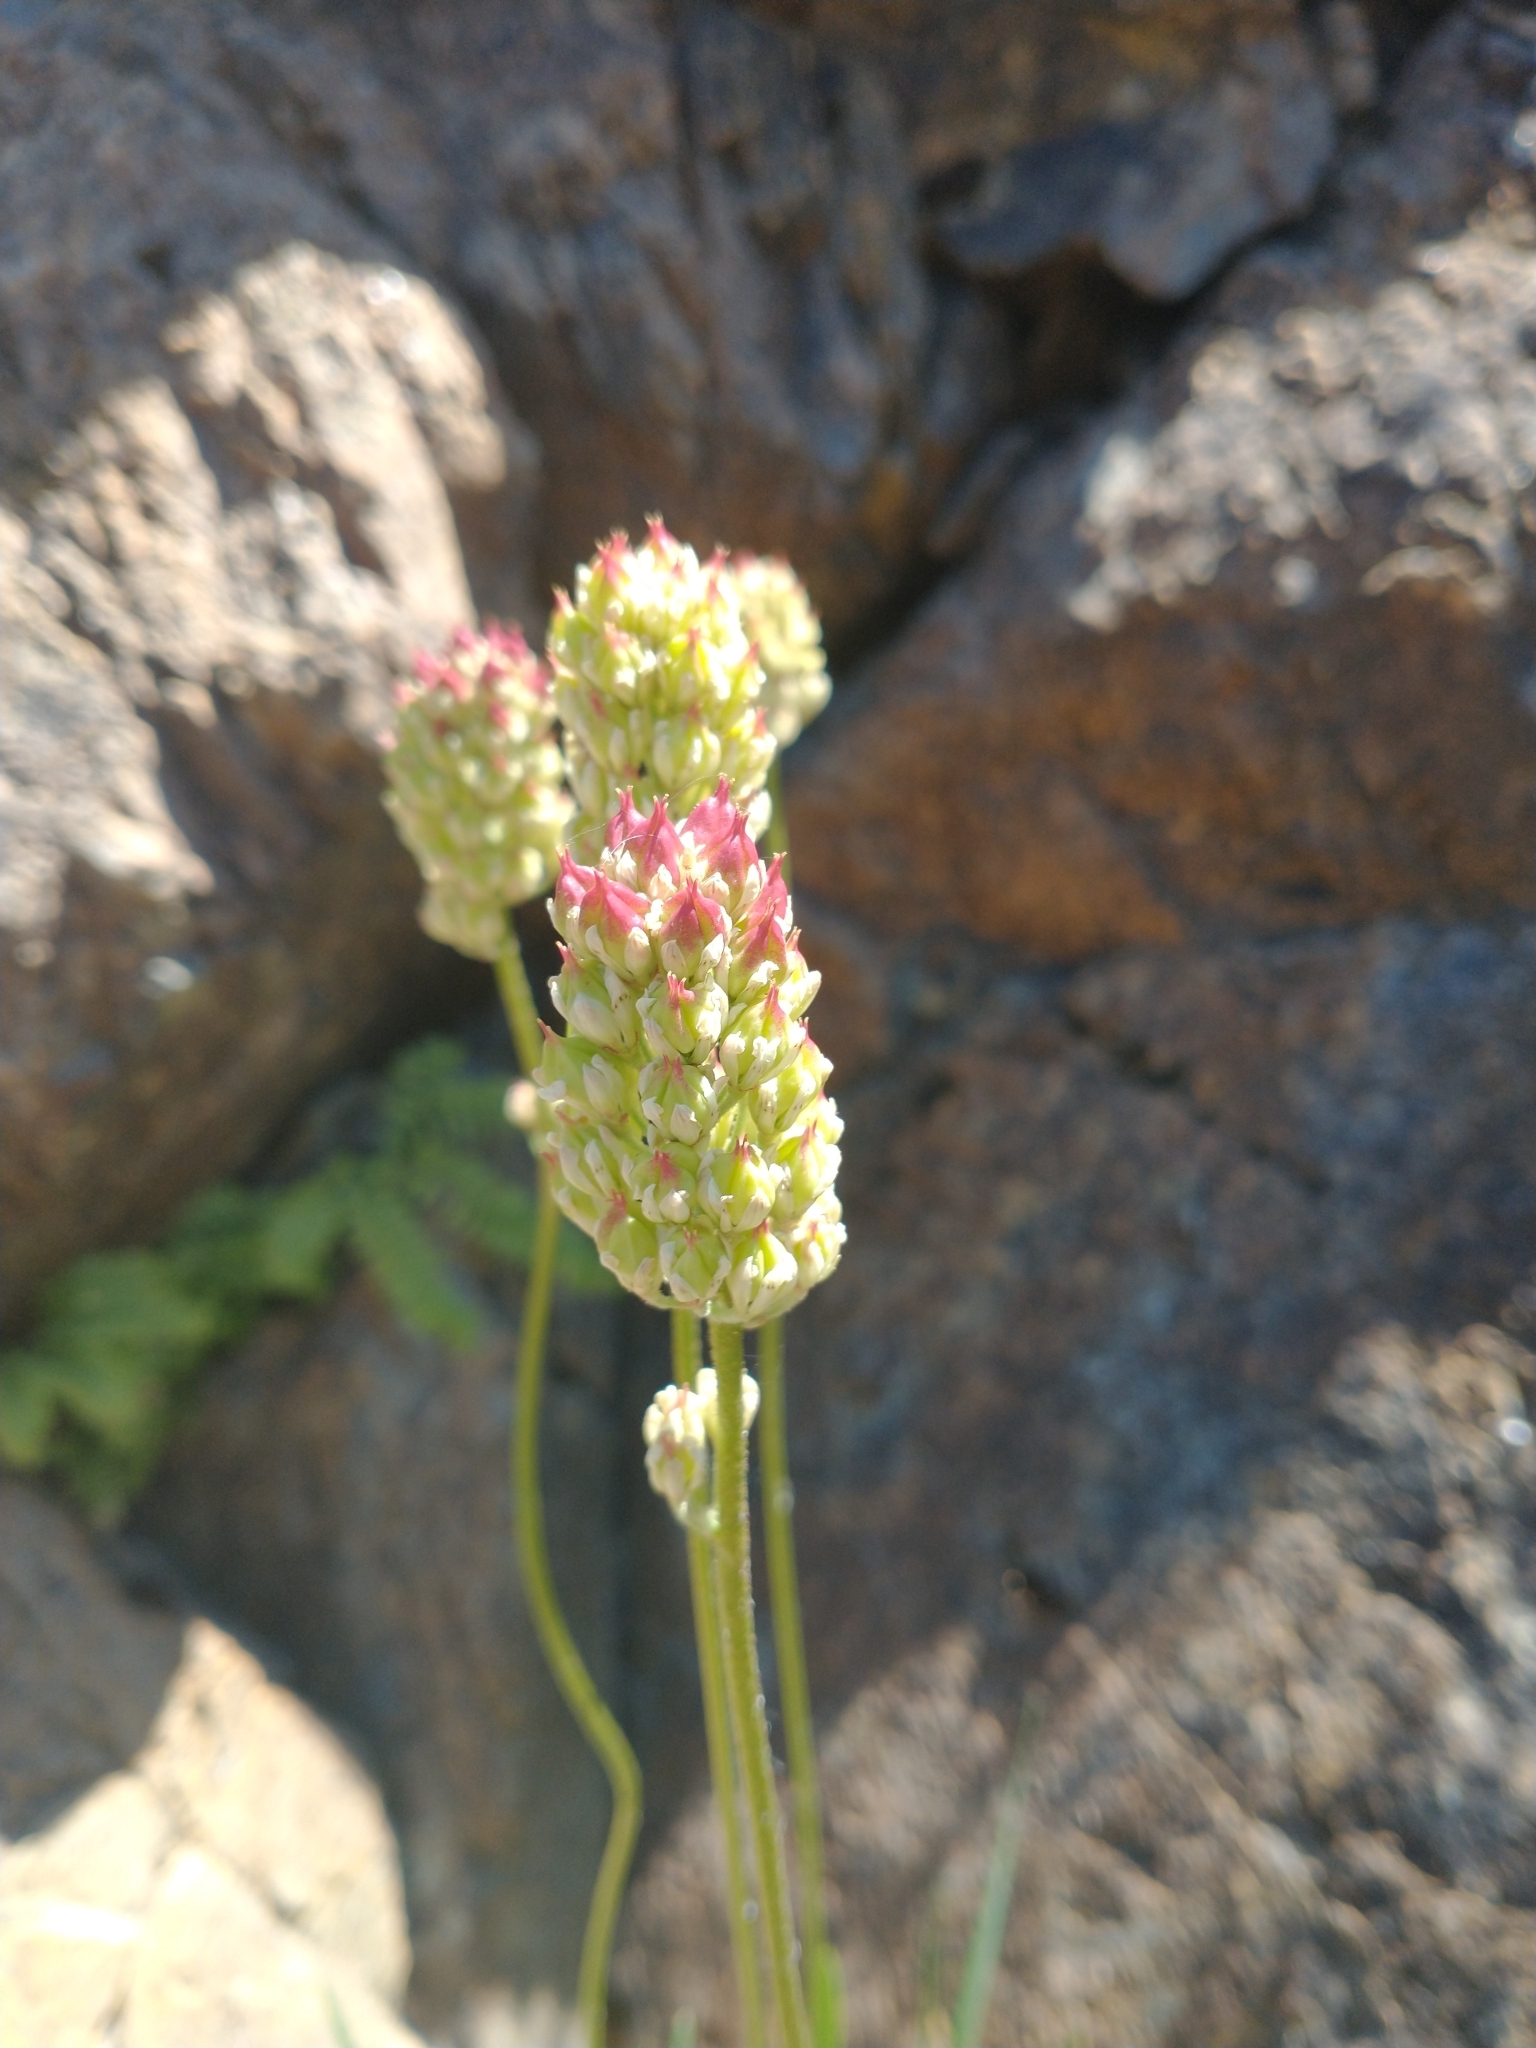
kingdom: Plantae
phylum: Tracheophyta
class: Liliopsida
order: Alismatales
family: Tofieldiaceae
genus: Triantha
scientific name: Triantha occidentalis
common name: Western false asphodel
